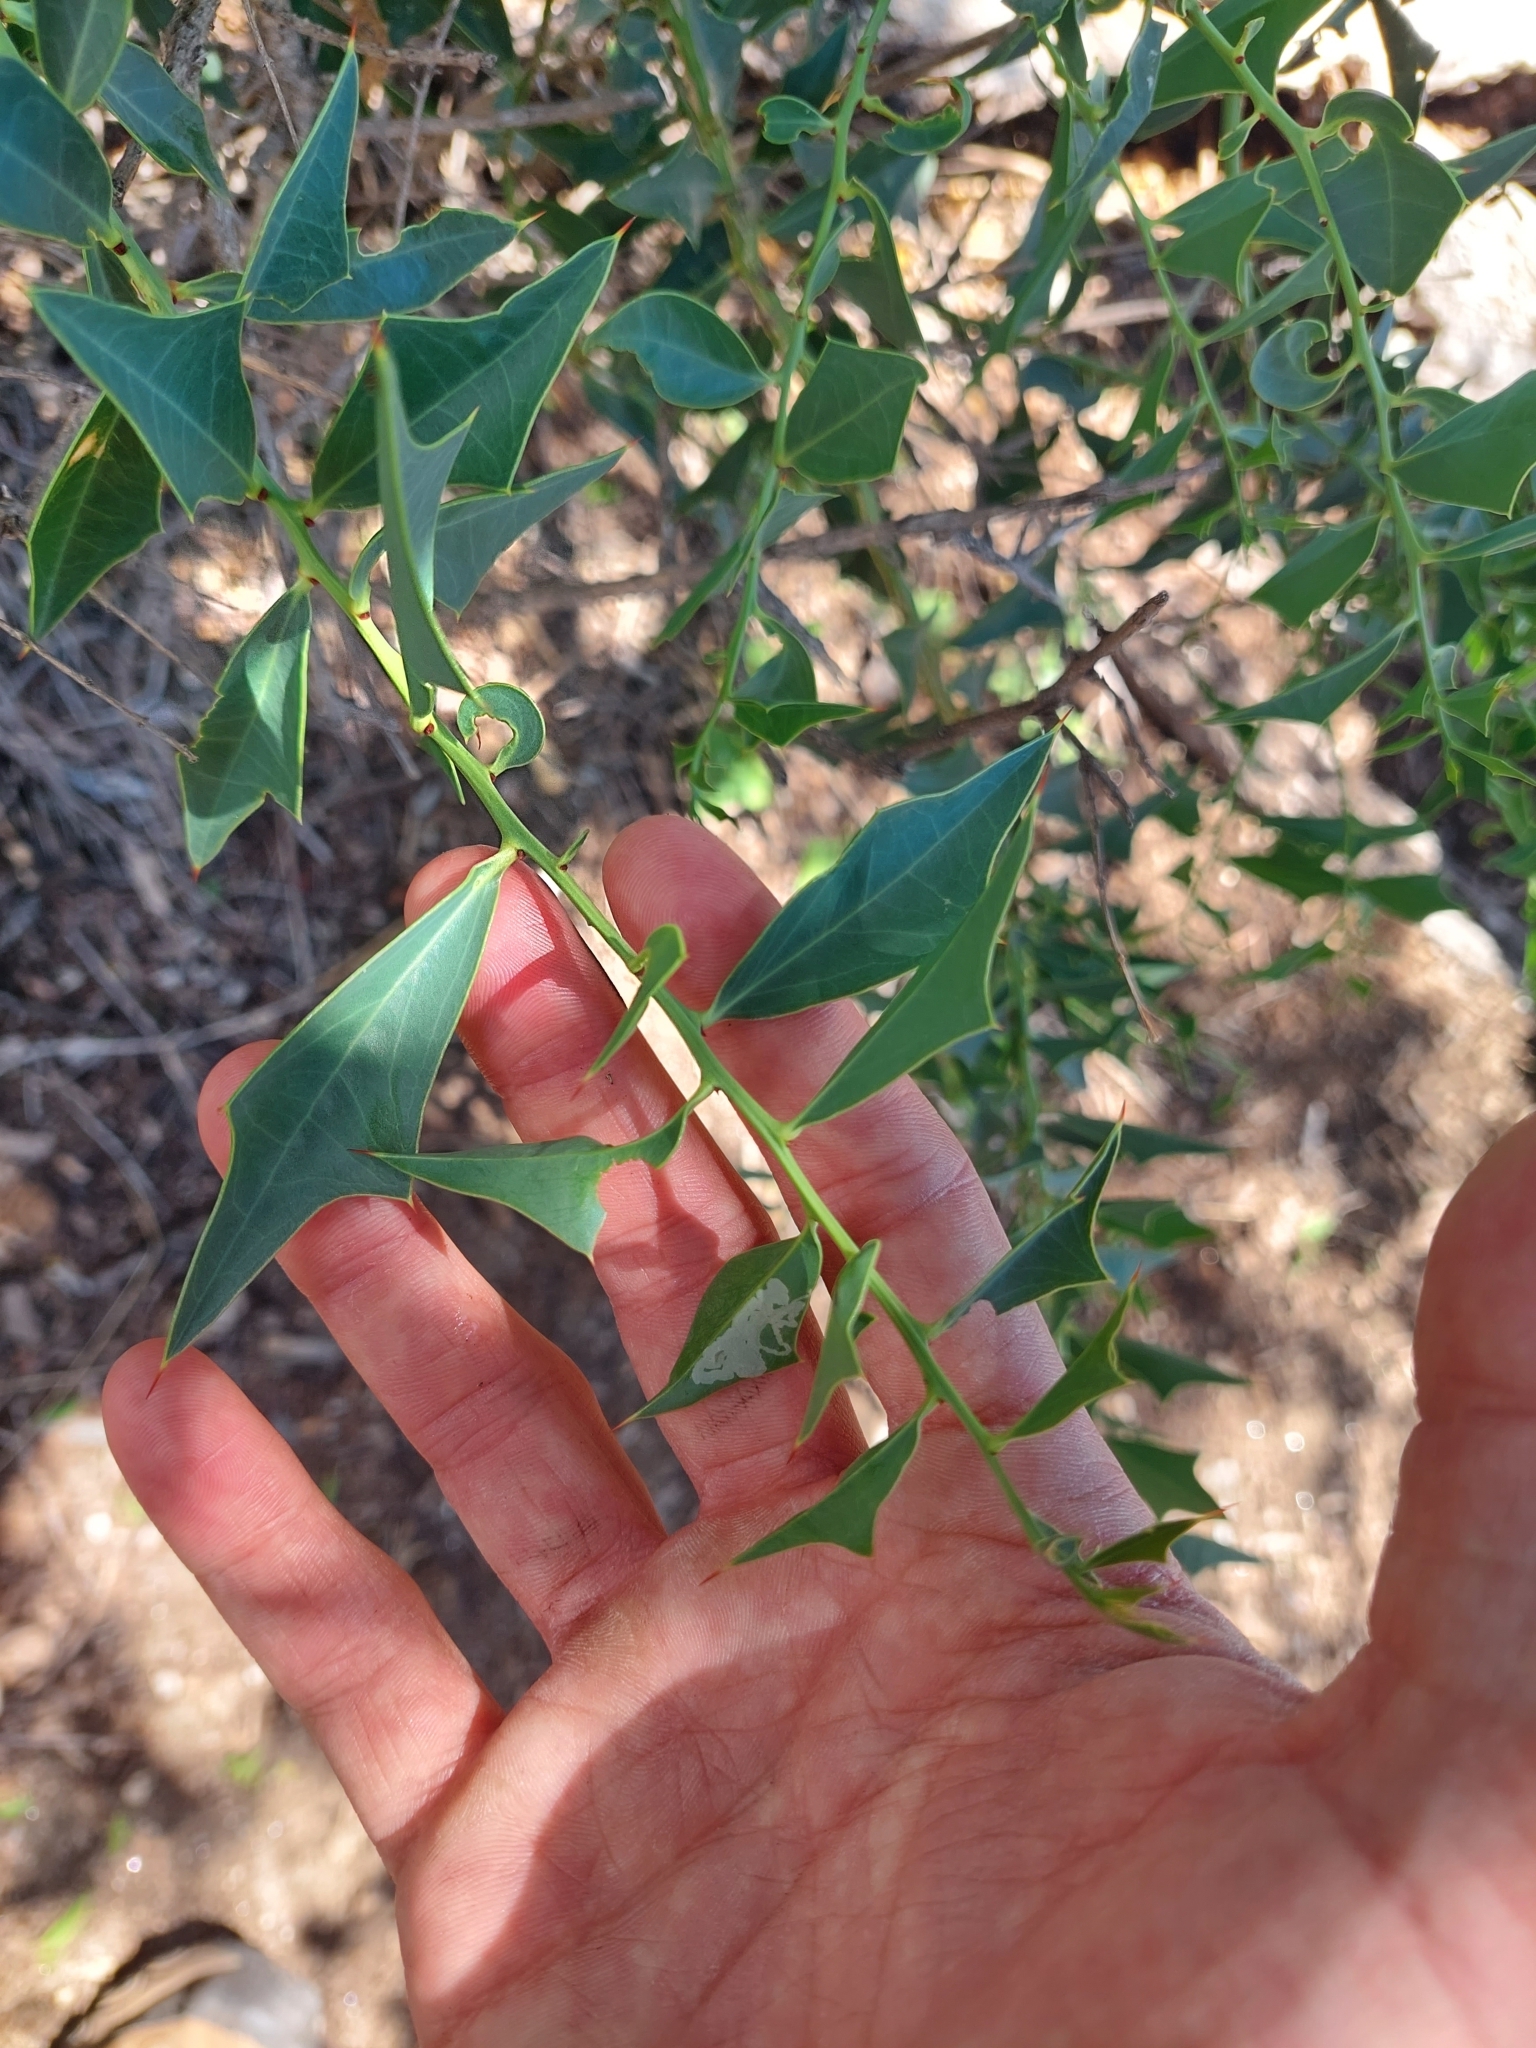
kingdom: Plantae
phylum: Tracheophyta
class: Magnoliopsida
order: Santalales
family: Cervantesiaceae
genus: Jodina
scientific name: Jodina rhombifolia
